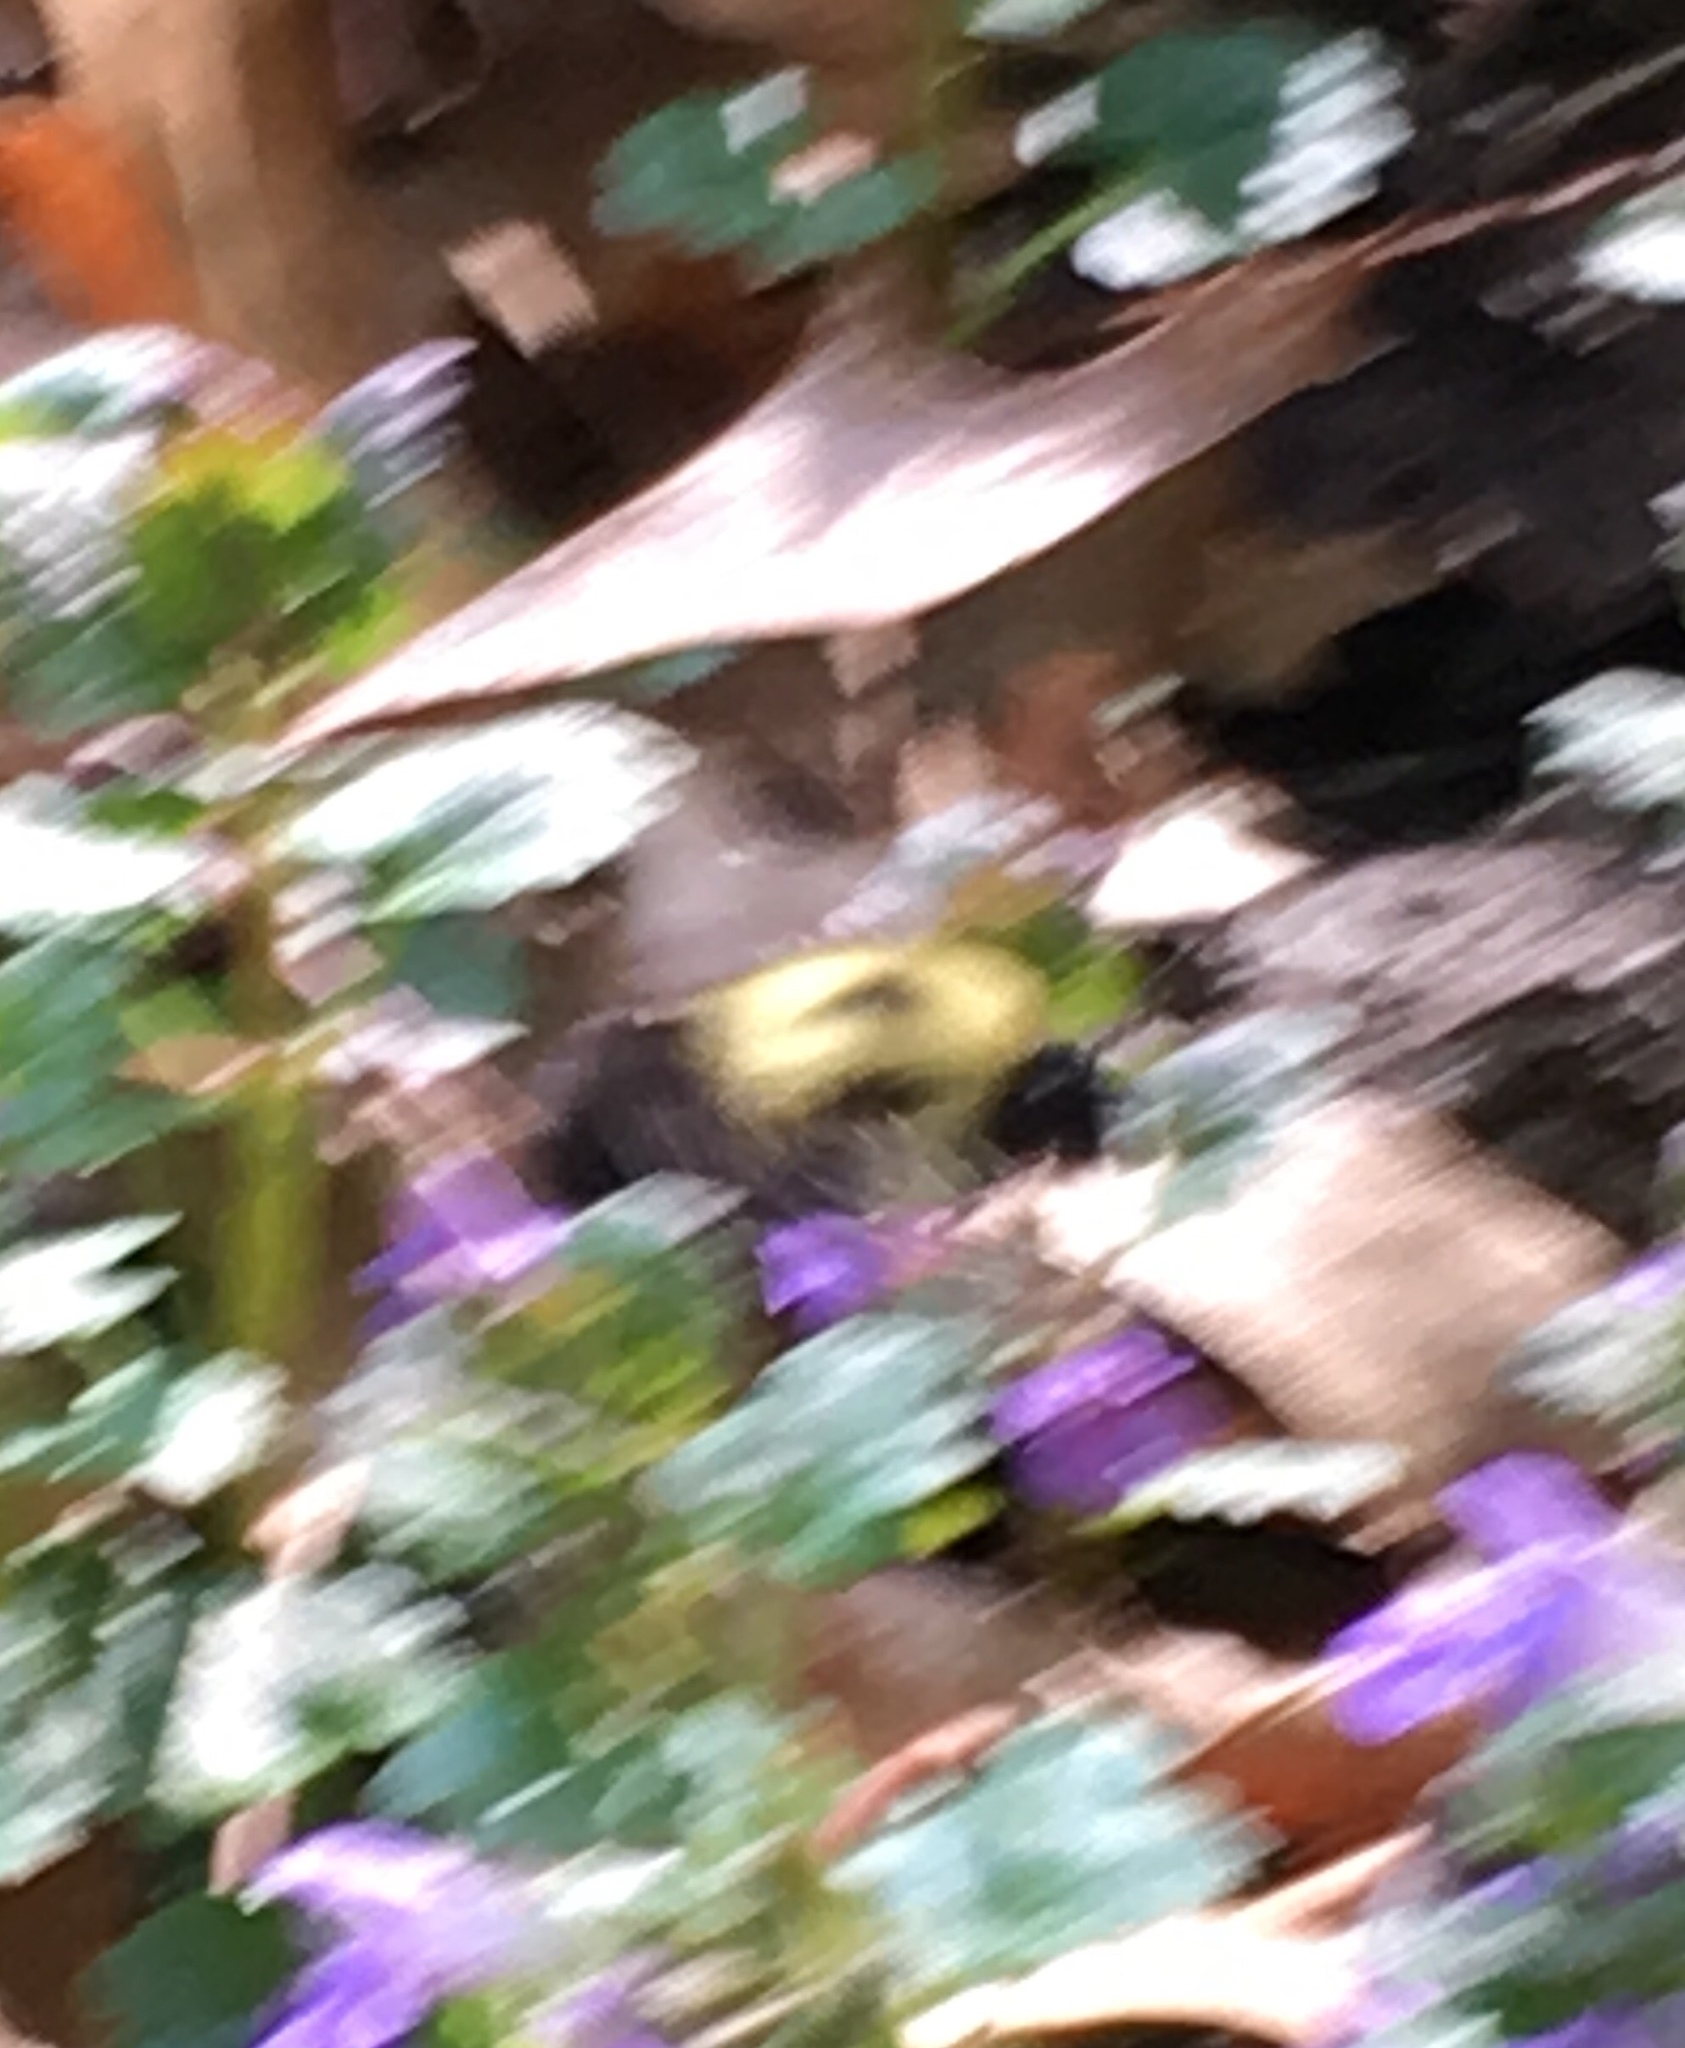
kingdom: Animalia
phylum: Arthropoda
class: Insecta
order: Hymenoptera
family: Apidae
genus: Bombus
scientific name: Bombus
